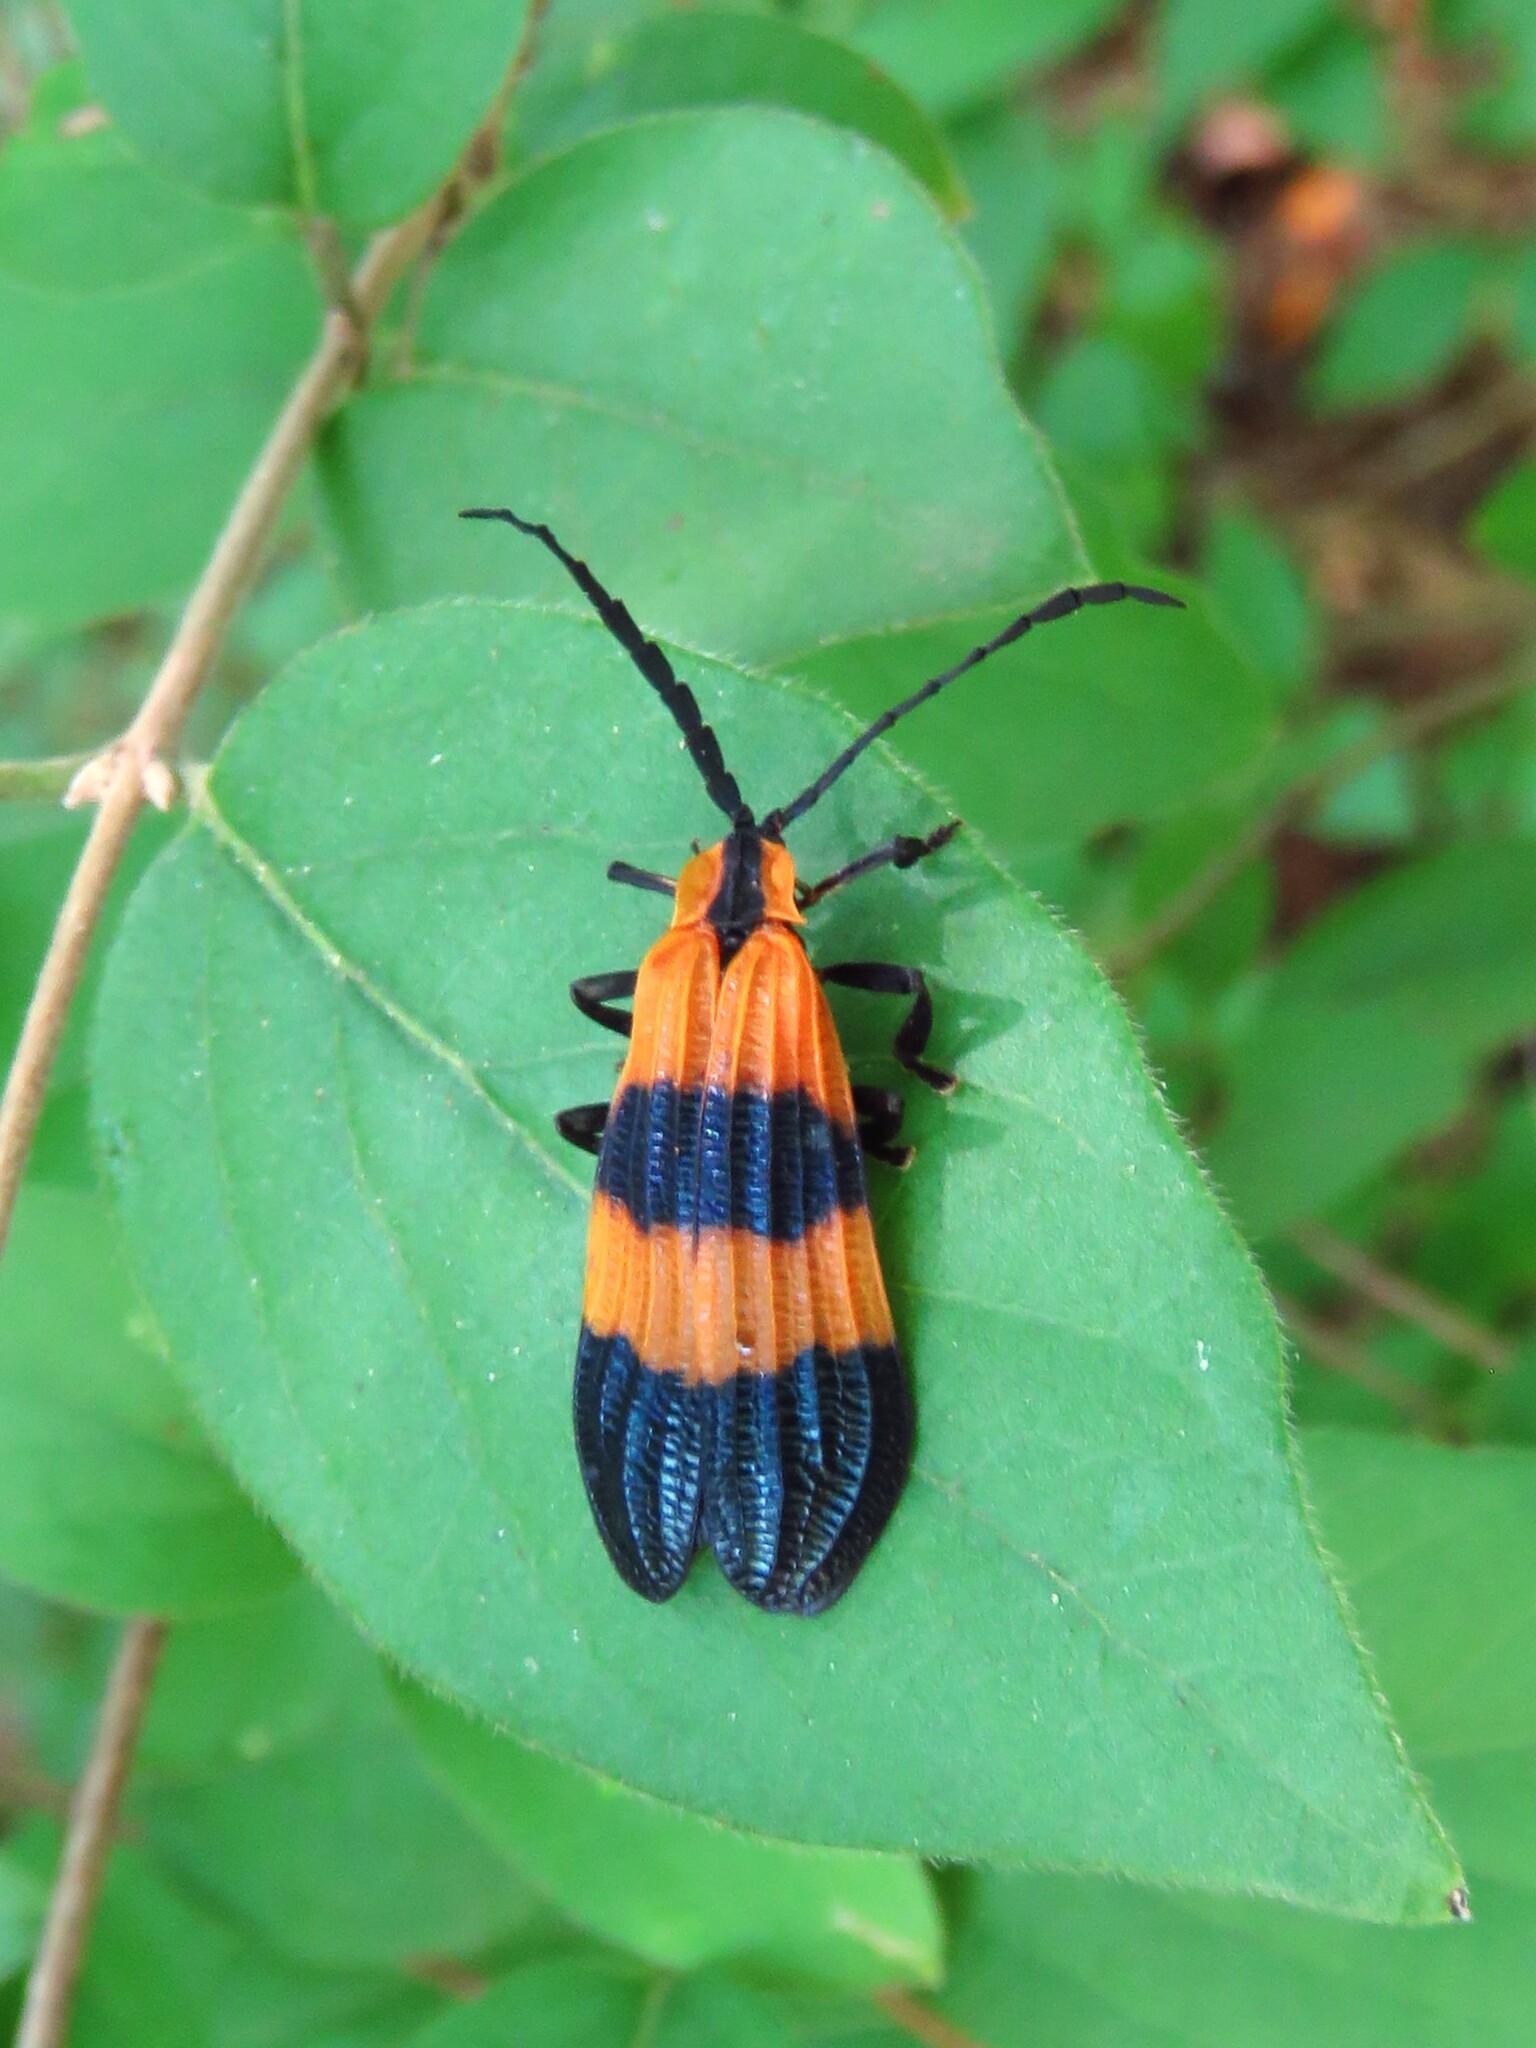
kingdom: Animalia
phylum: Arthropoda
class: Insecta
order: Coleoptera
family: Lycidae
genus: Calopteron
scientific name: Calopteron terminale
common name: End band net-winged beetle
